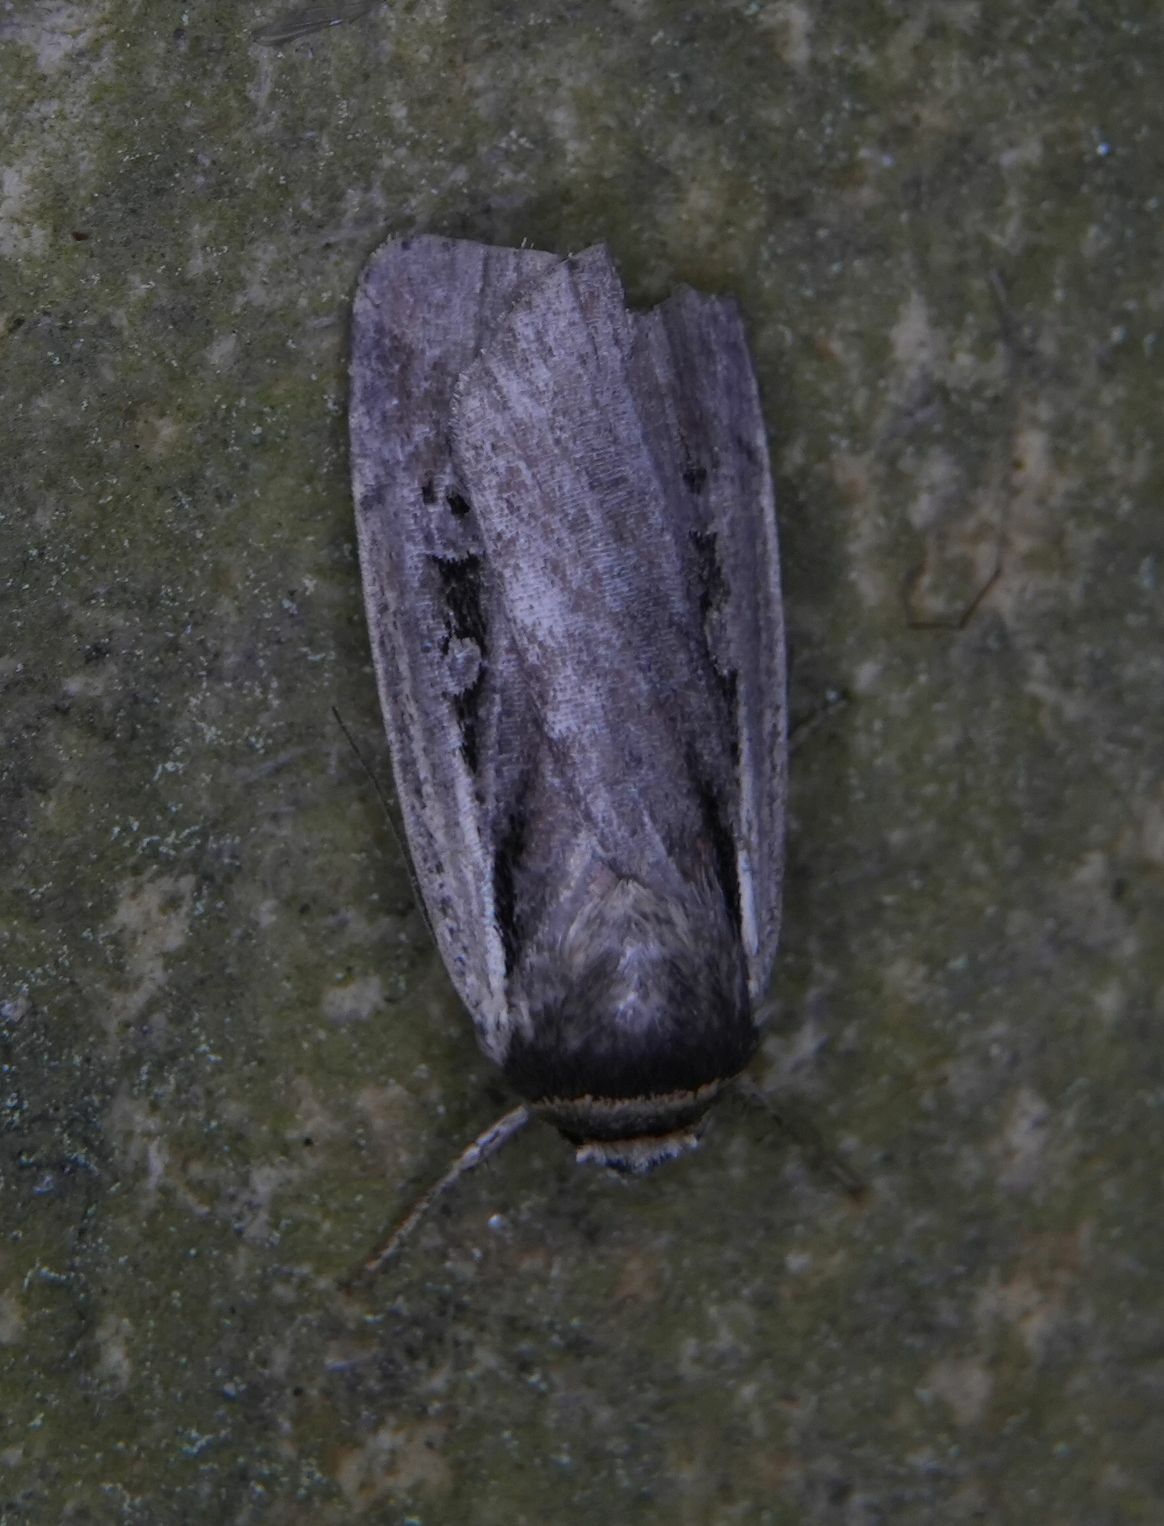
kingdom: Animalia
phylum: Arthropoda
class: Insecta
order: Lepidoptera
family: Noctuidae
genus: Ochropleura
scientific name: Ochropleura implecta
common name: Flame-shouldered dart
